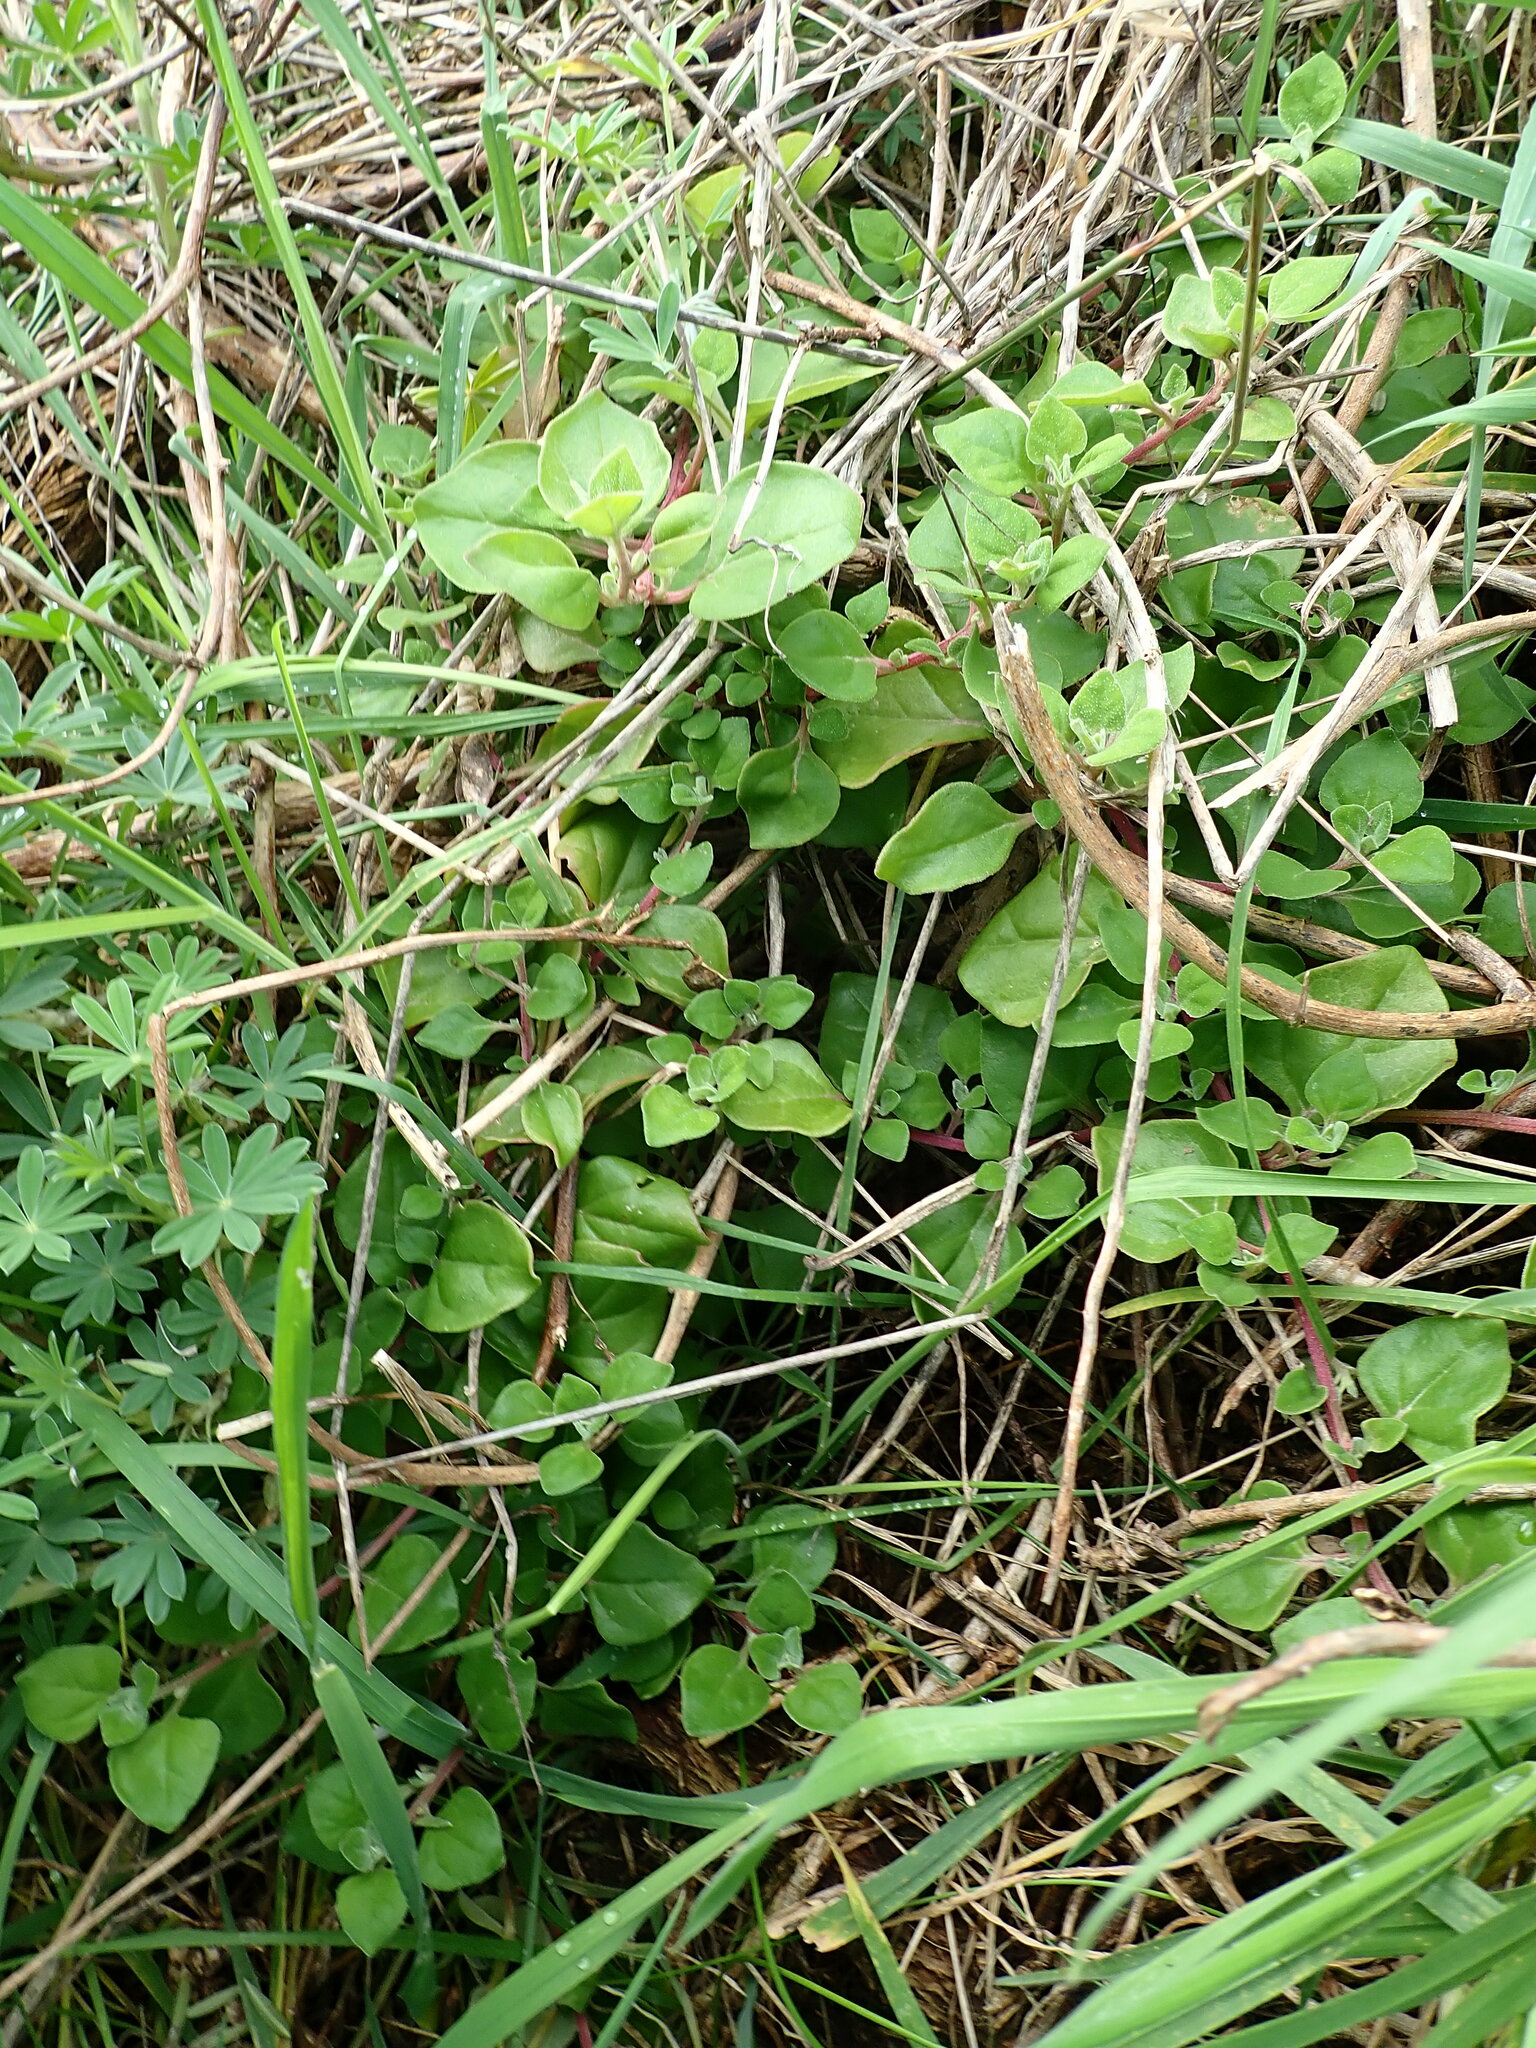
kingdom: Plantae
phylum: Tracheophyta
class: Magnoliopsida
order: Caryophyllales
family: Aizoaceae
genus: Tetragonia
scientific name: Tetragonia implexicoma
